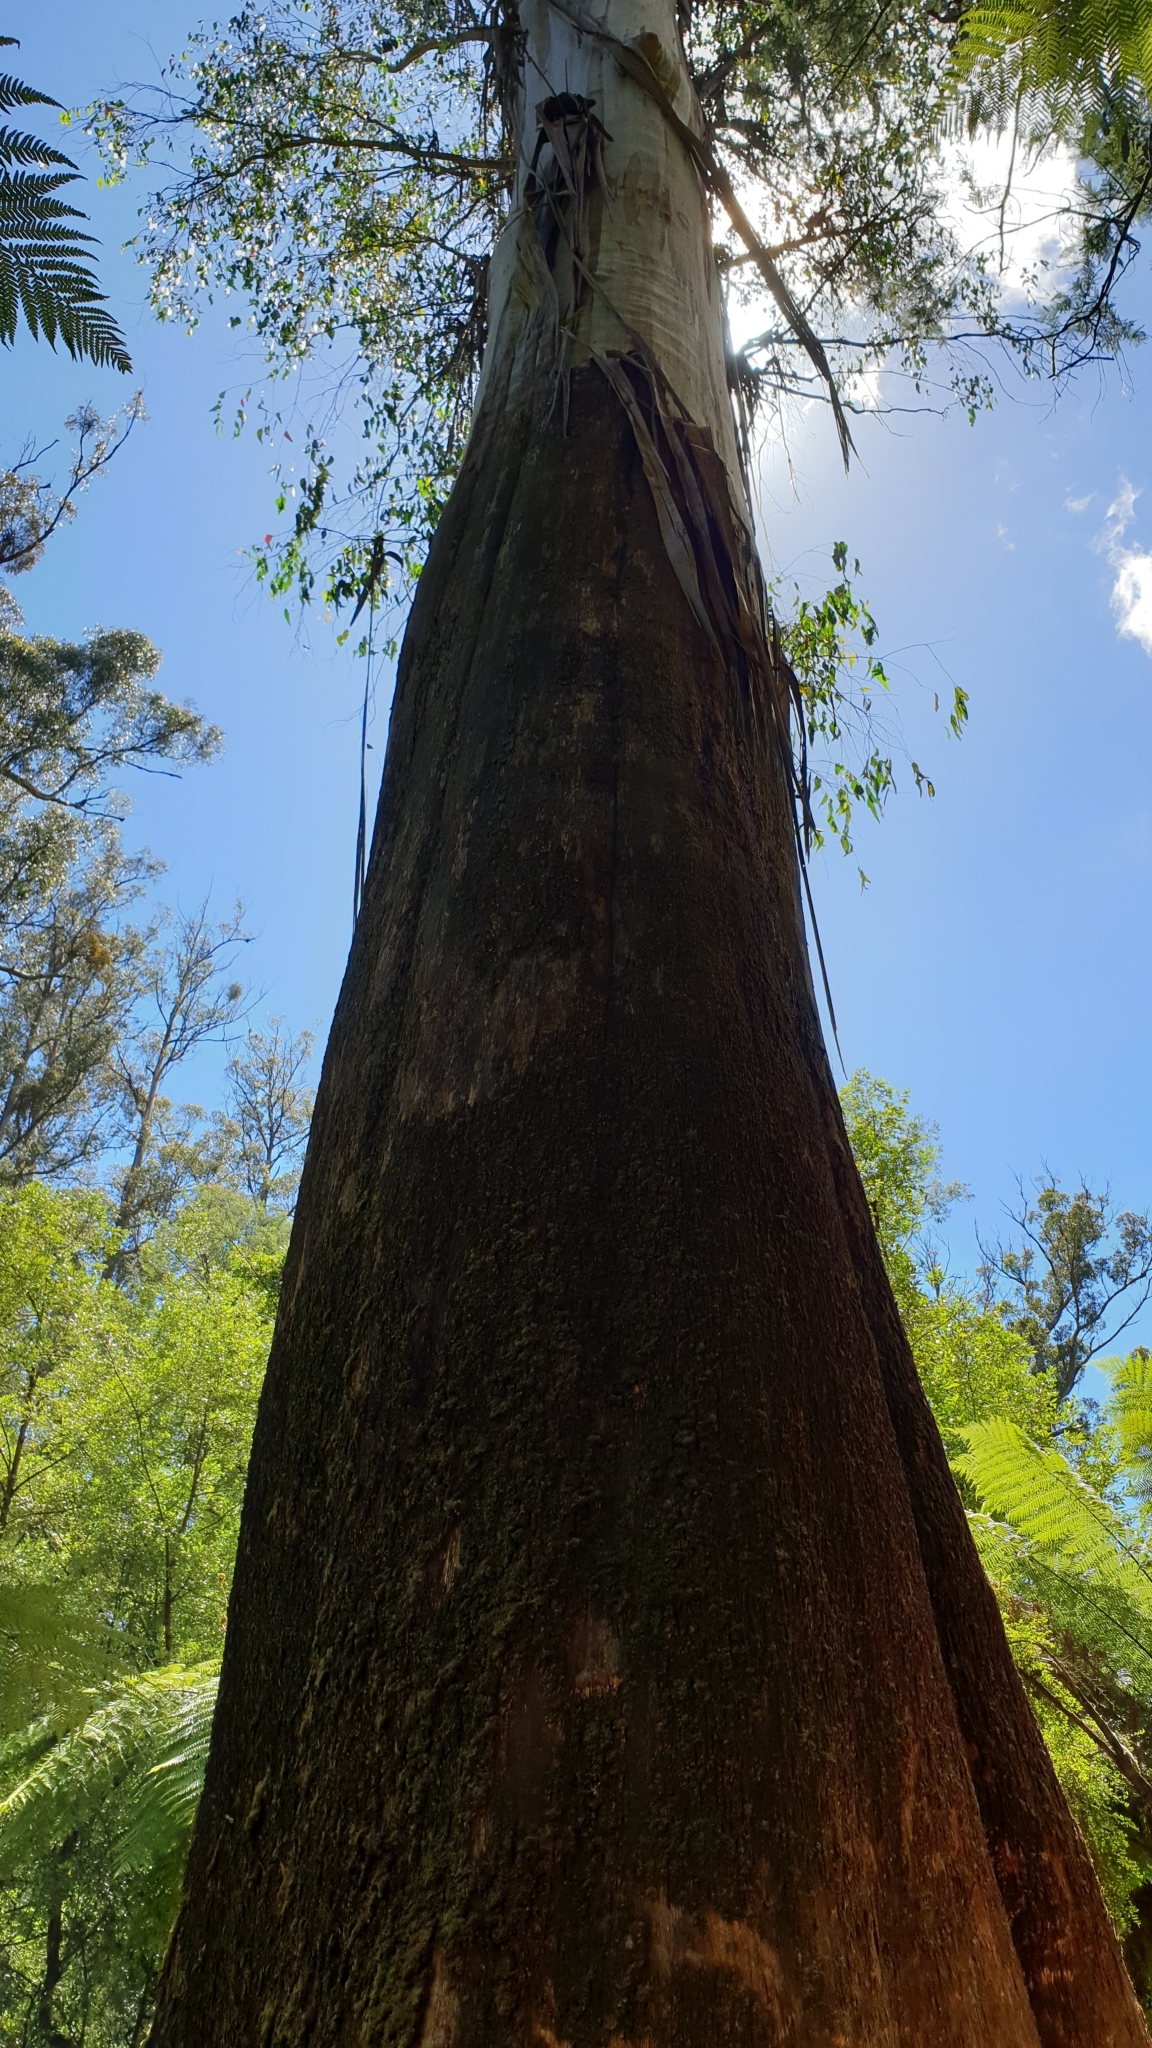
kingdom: Plantae
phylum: Tracheophyta
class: Magnoliopsida
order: Myrtales
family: Myrtaceae
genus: Eucalyptus
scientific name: Eucalyptus regnans
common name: Stringy gum
